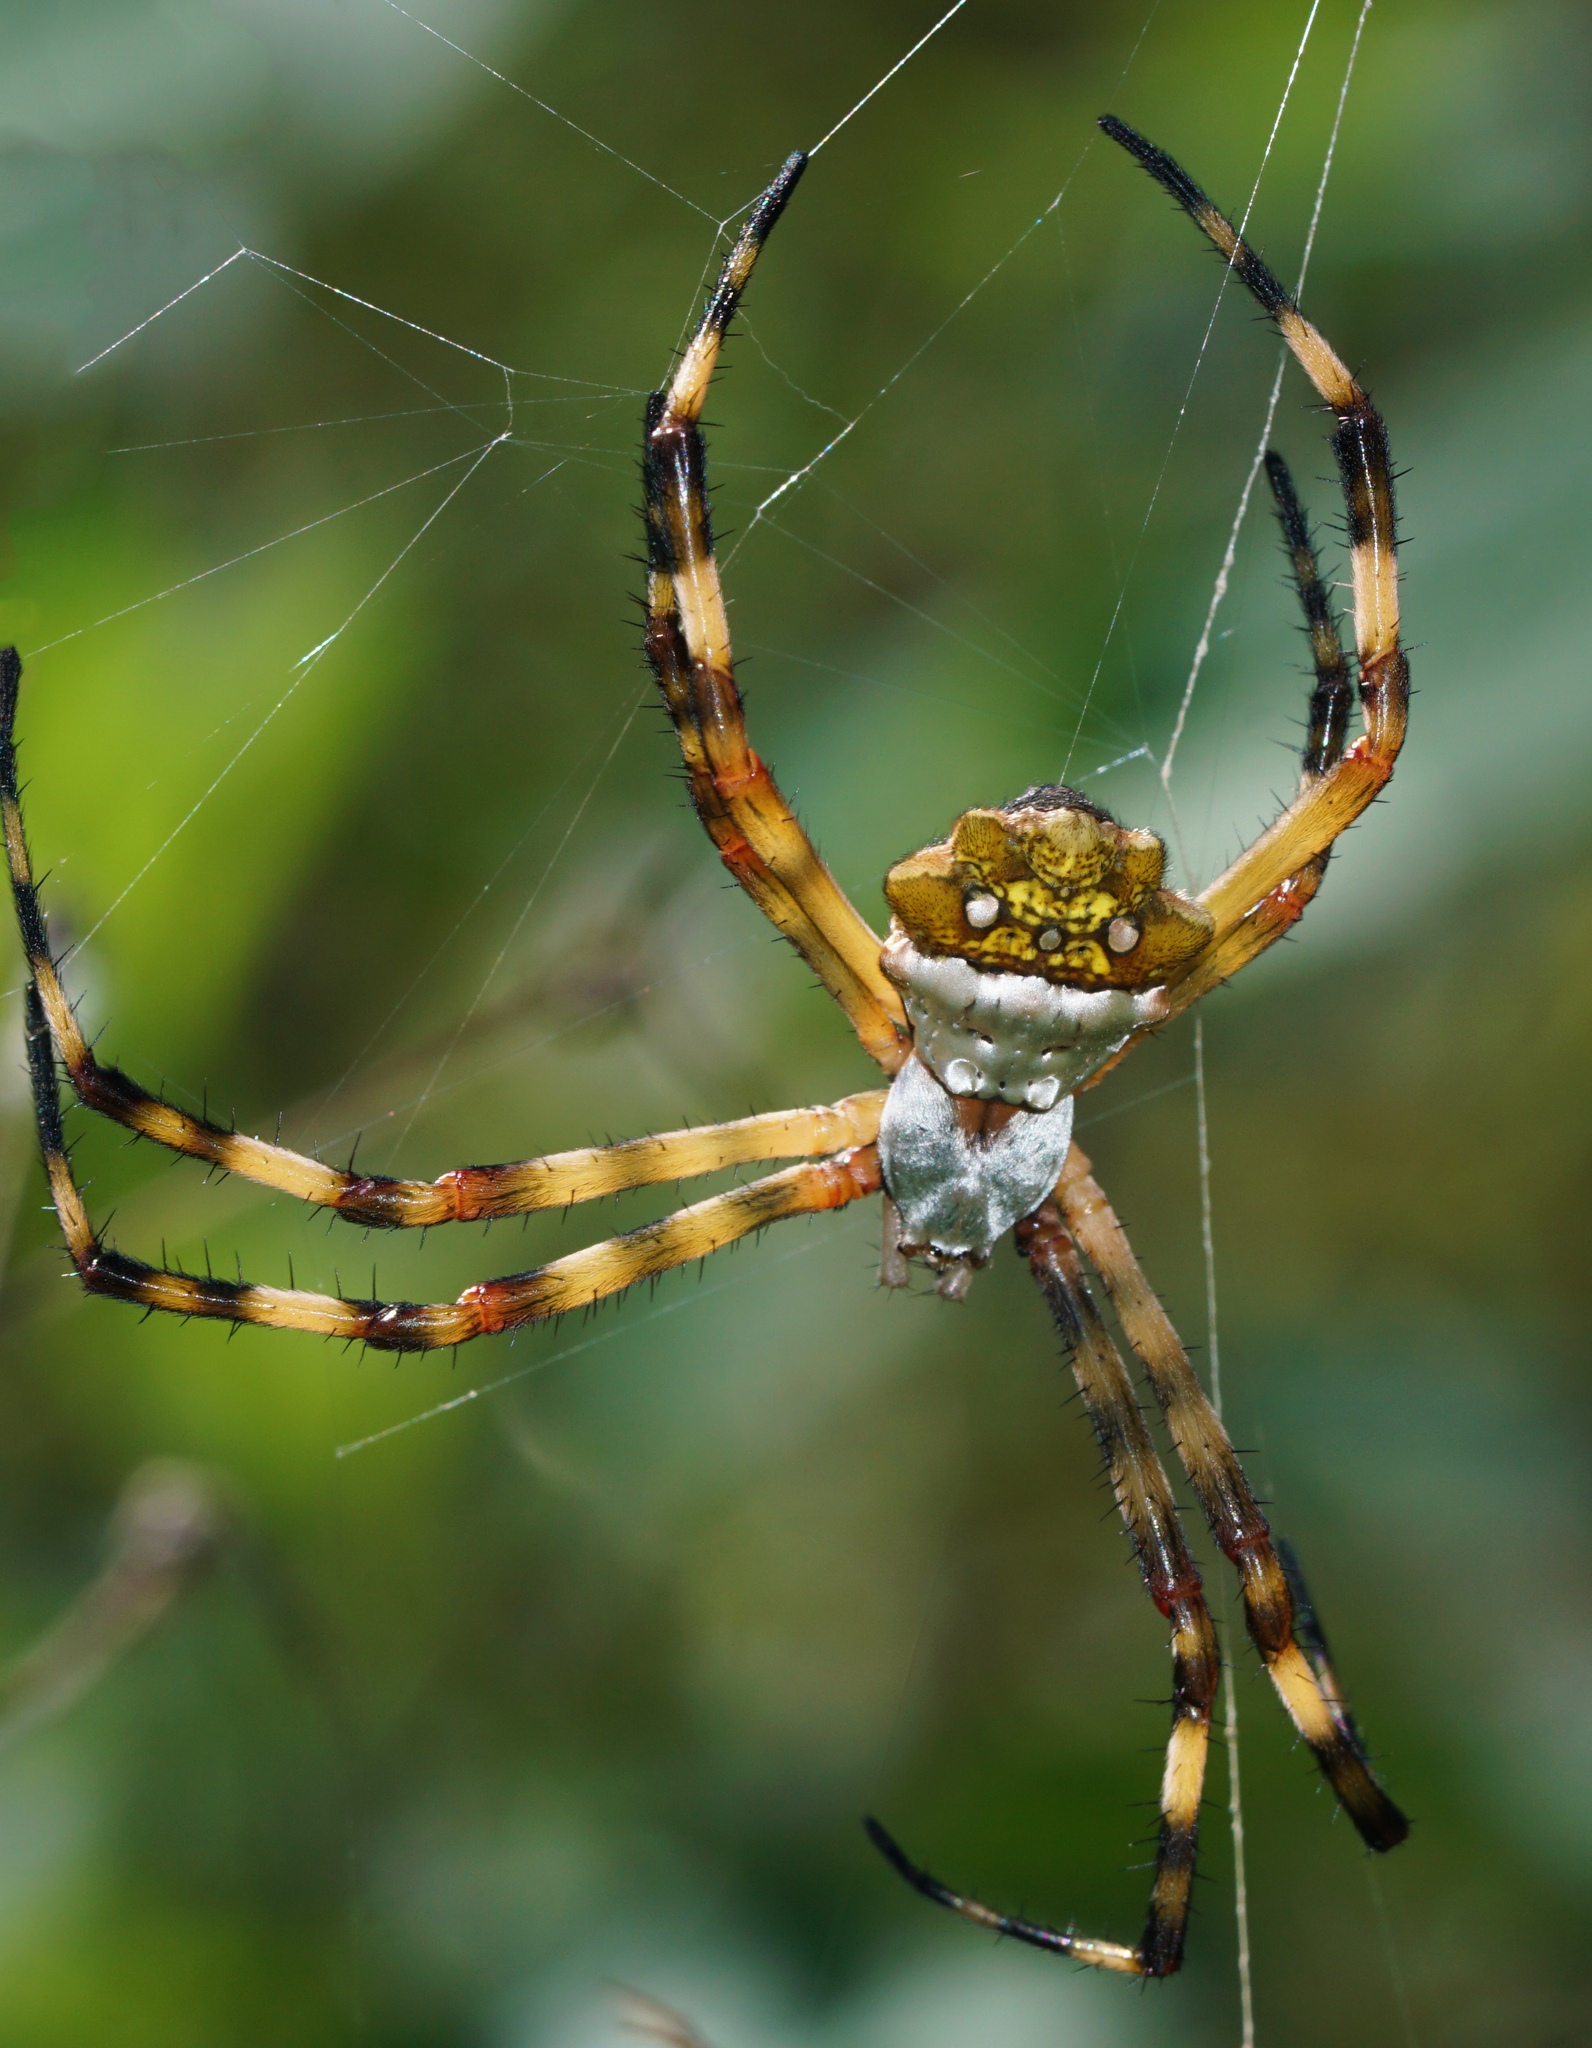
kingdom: Animalia
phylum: Arthropoda
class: Arachnida
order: Araneae
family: Araneidae
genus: Argiope
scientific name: Argiope argentata
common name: Orb weavers
